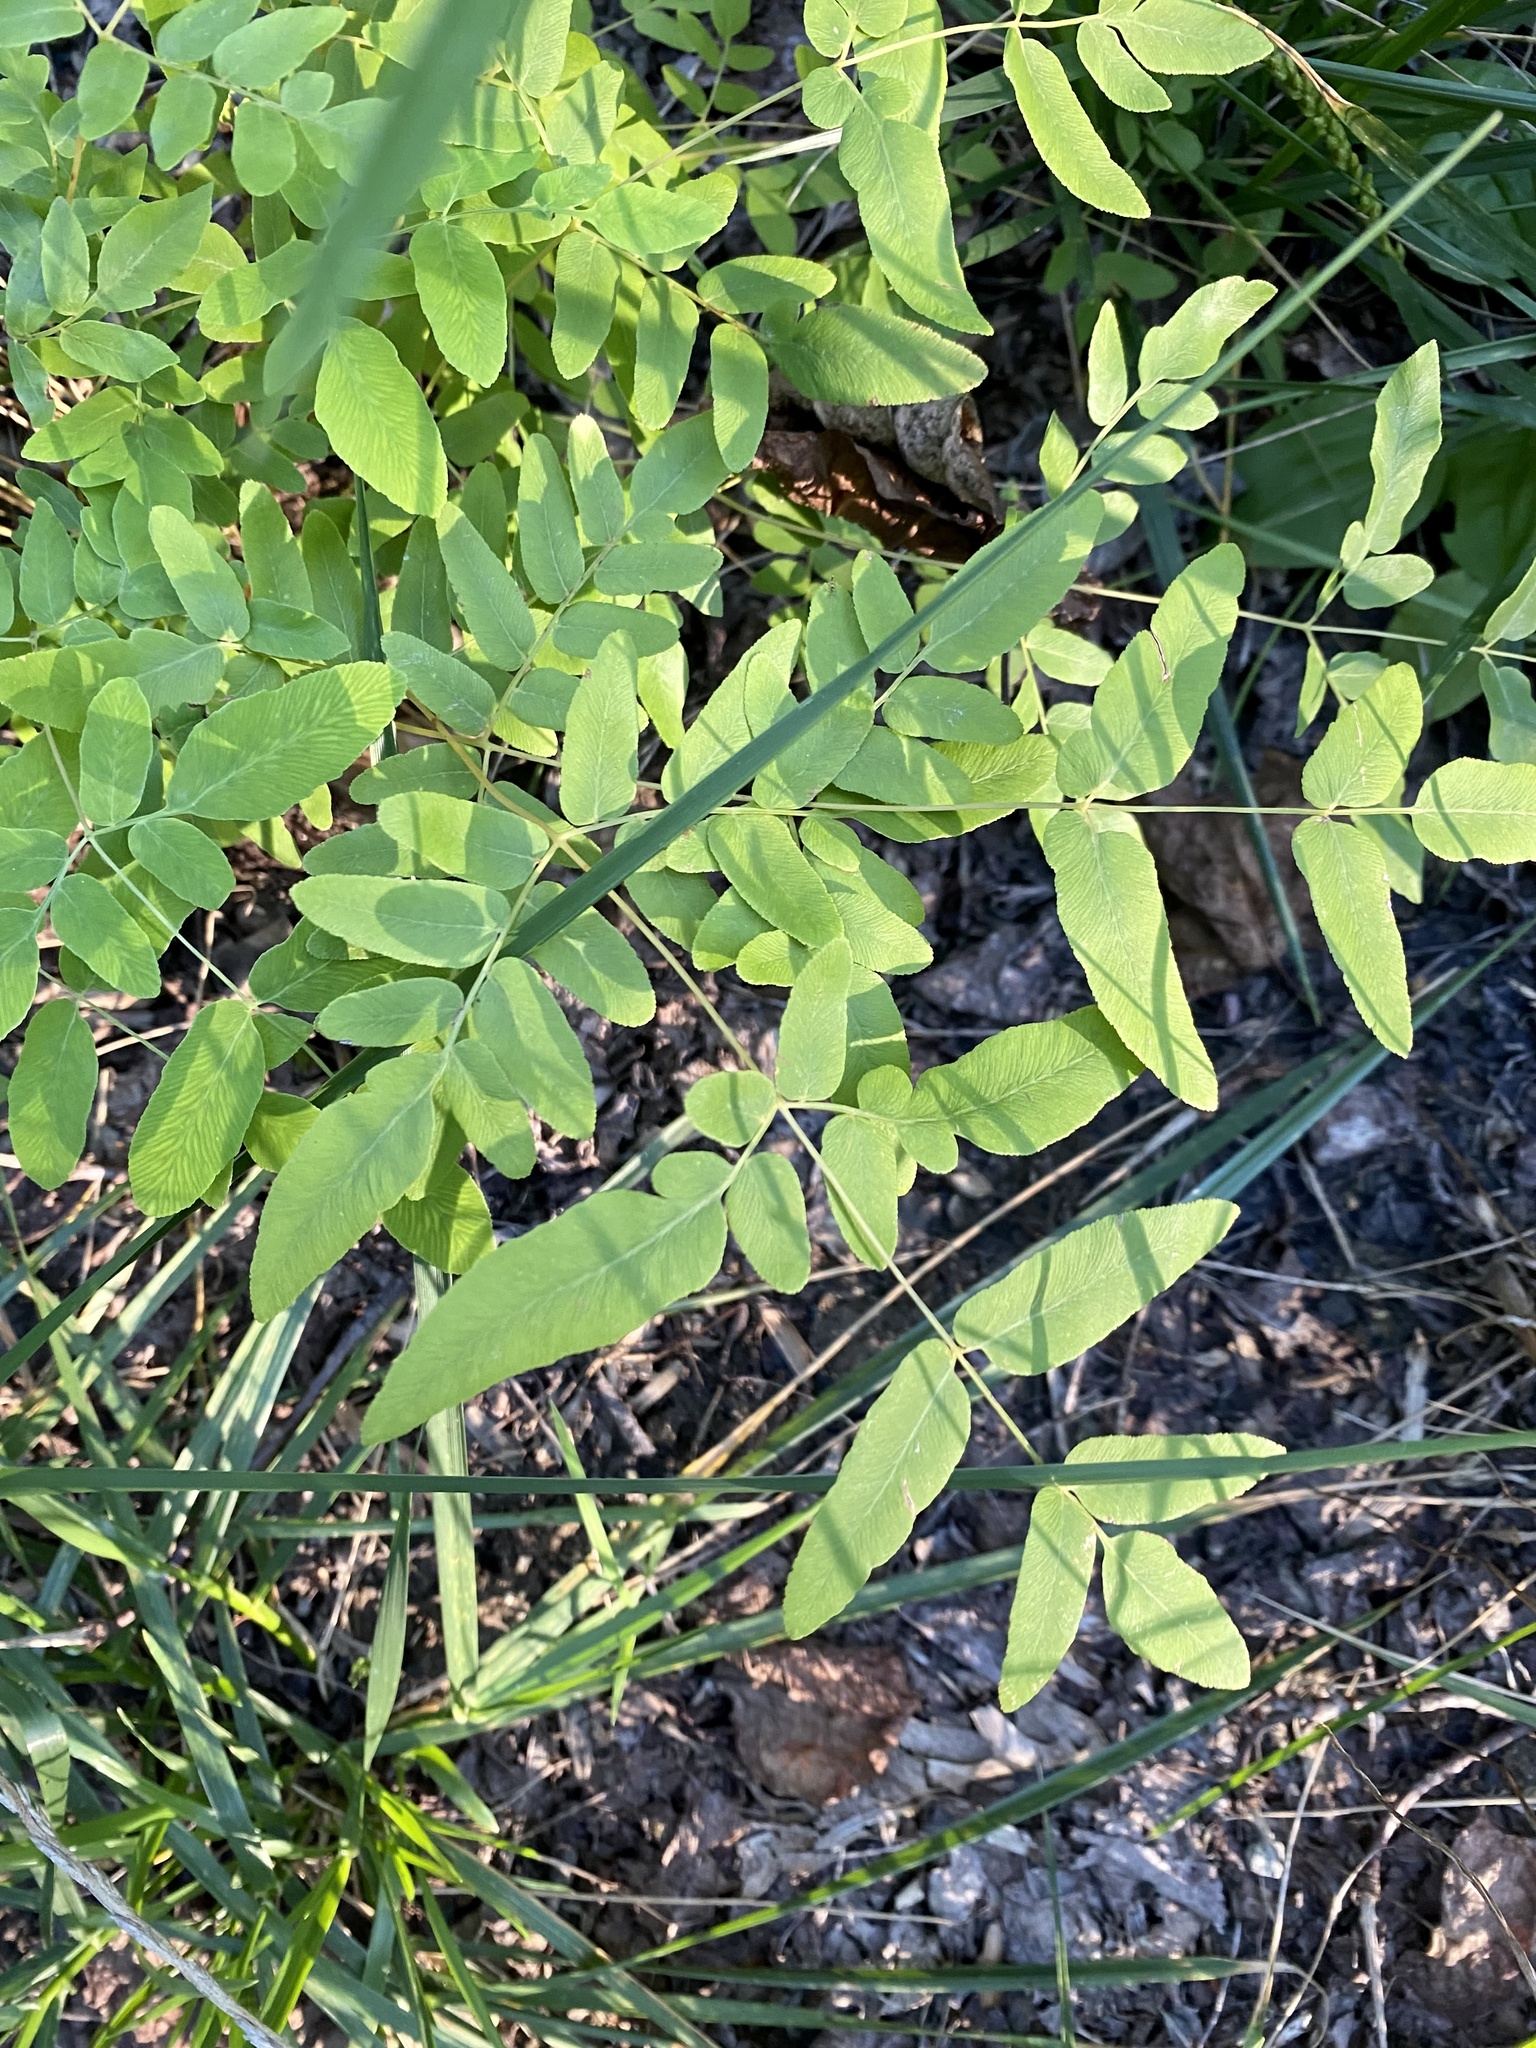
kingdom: Plantae
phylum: Tracheophyta
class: Polypodiopsida
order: Osmundales
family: Osmundaceae
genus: Osmunda
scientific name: Osmunda spectabilis
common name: American royal fern
